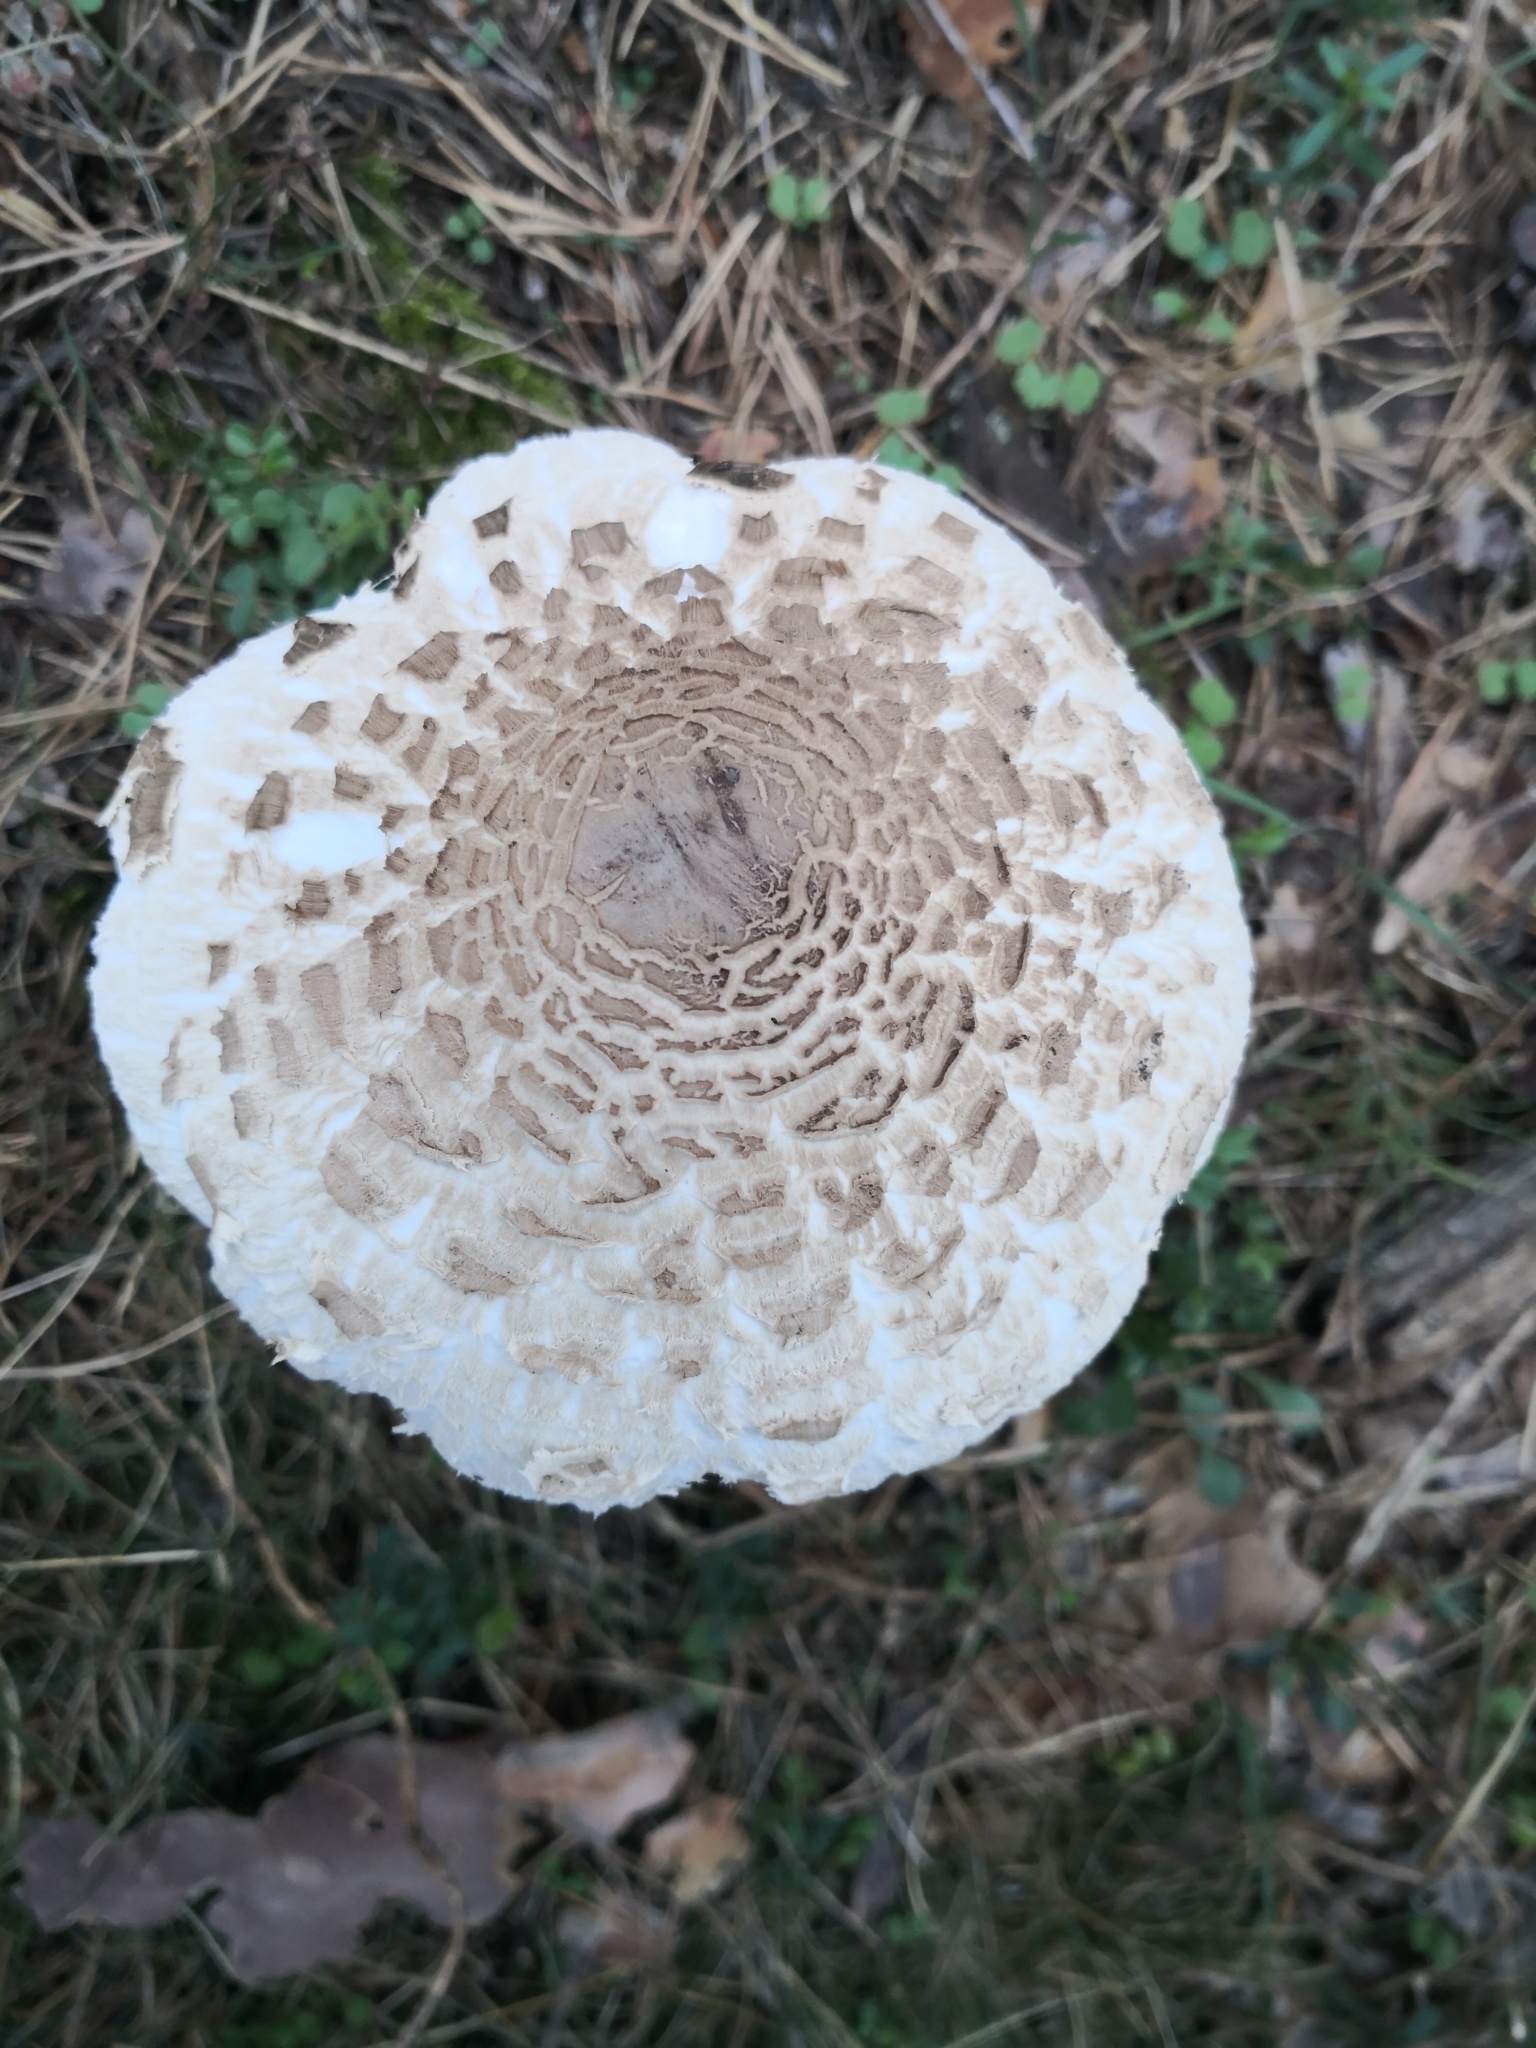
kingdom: Fungi
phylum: Basidiomycota
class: Agaricomycetes
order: Agaricales
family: Agaricaceae
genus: Macrolepiota
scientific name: Macrolepiota procera
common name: Parasol
